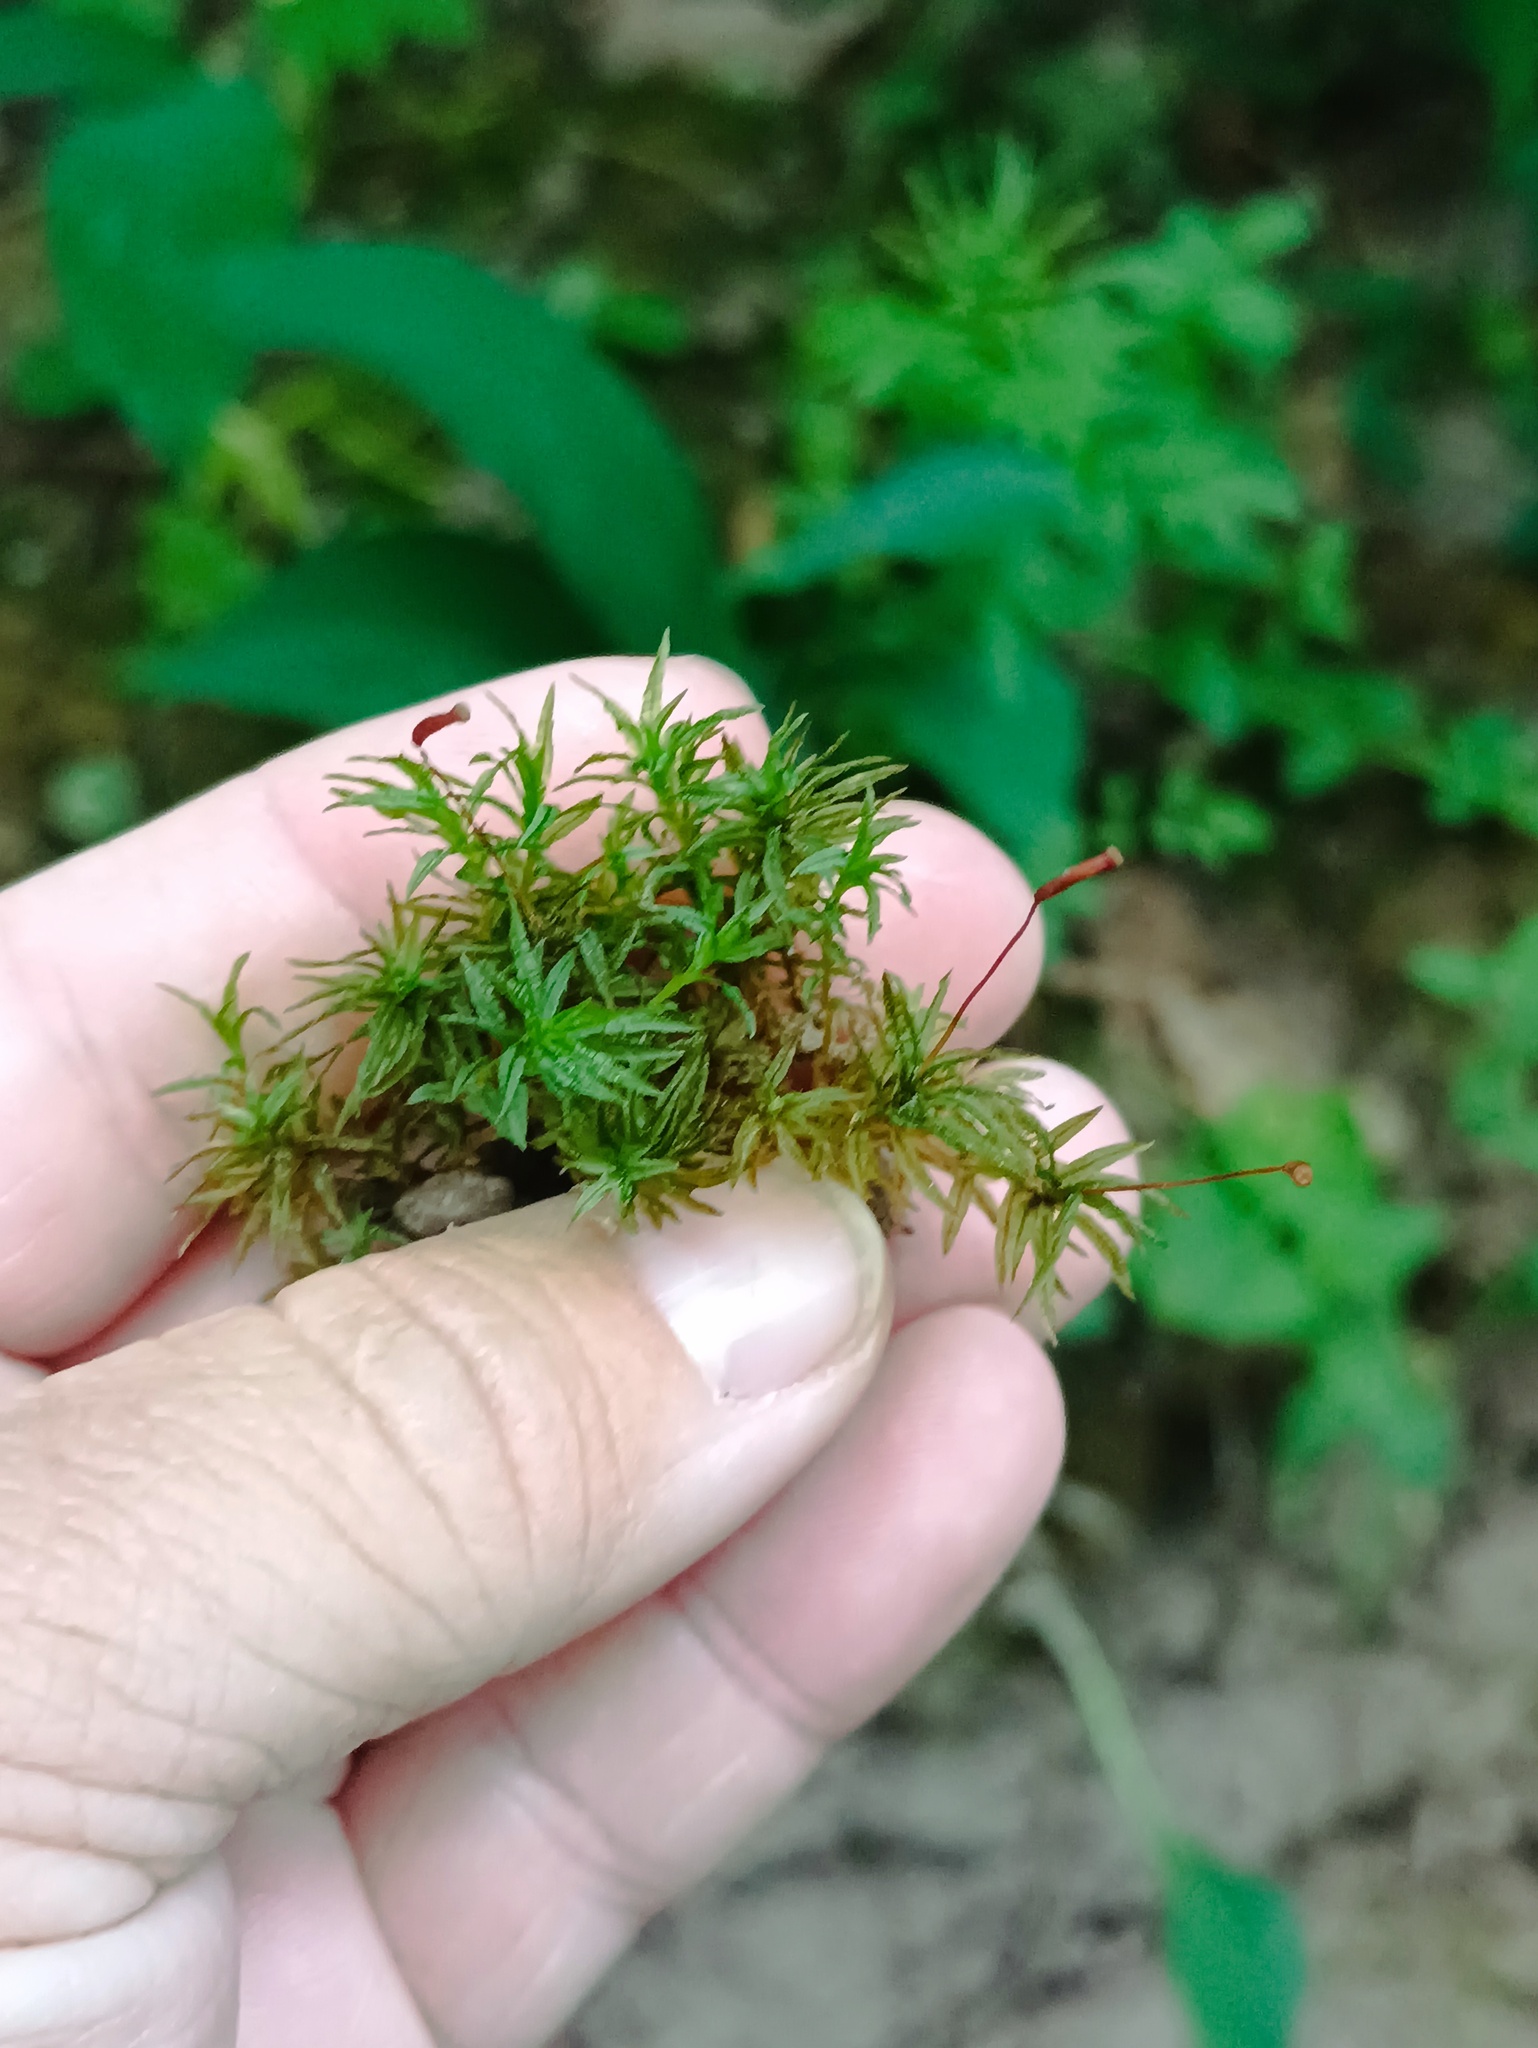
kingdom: Plantae
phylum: Bryophyta
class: Polytrichopsida
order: Polytrichales
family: Polytrichaceae
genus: Atrichum
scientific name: Atrichum undulatum
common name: Common smoothcap
